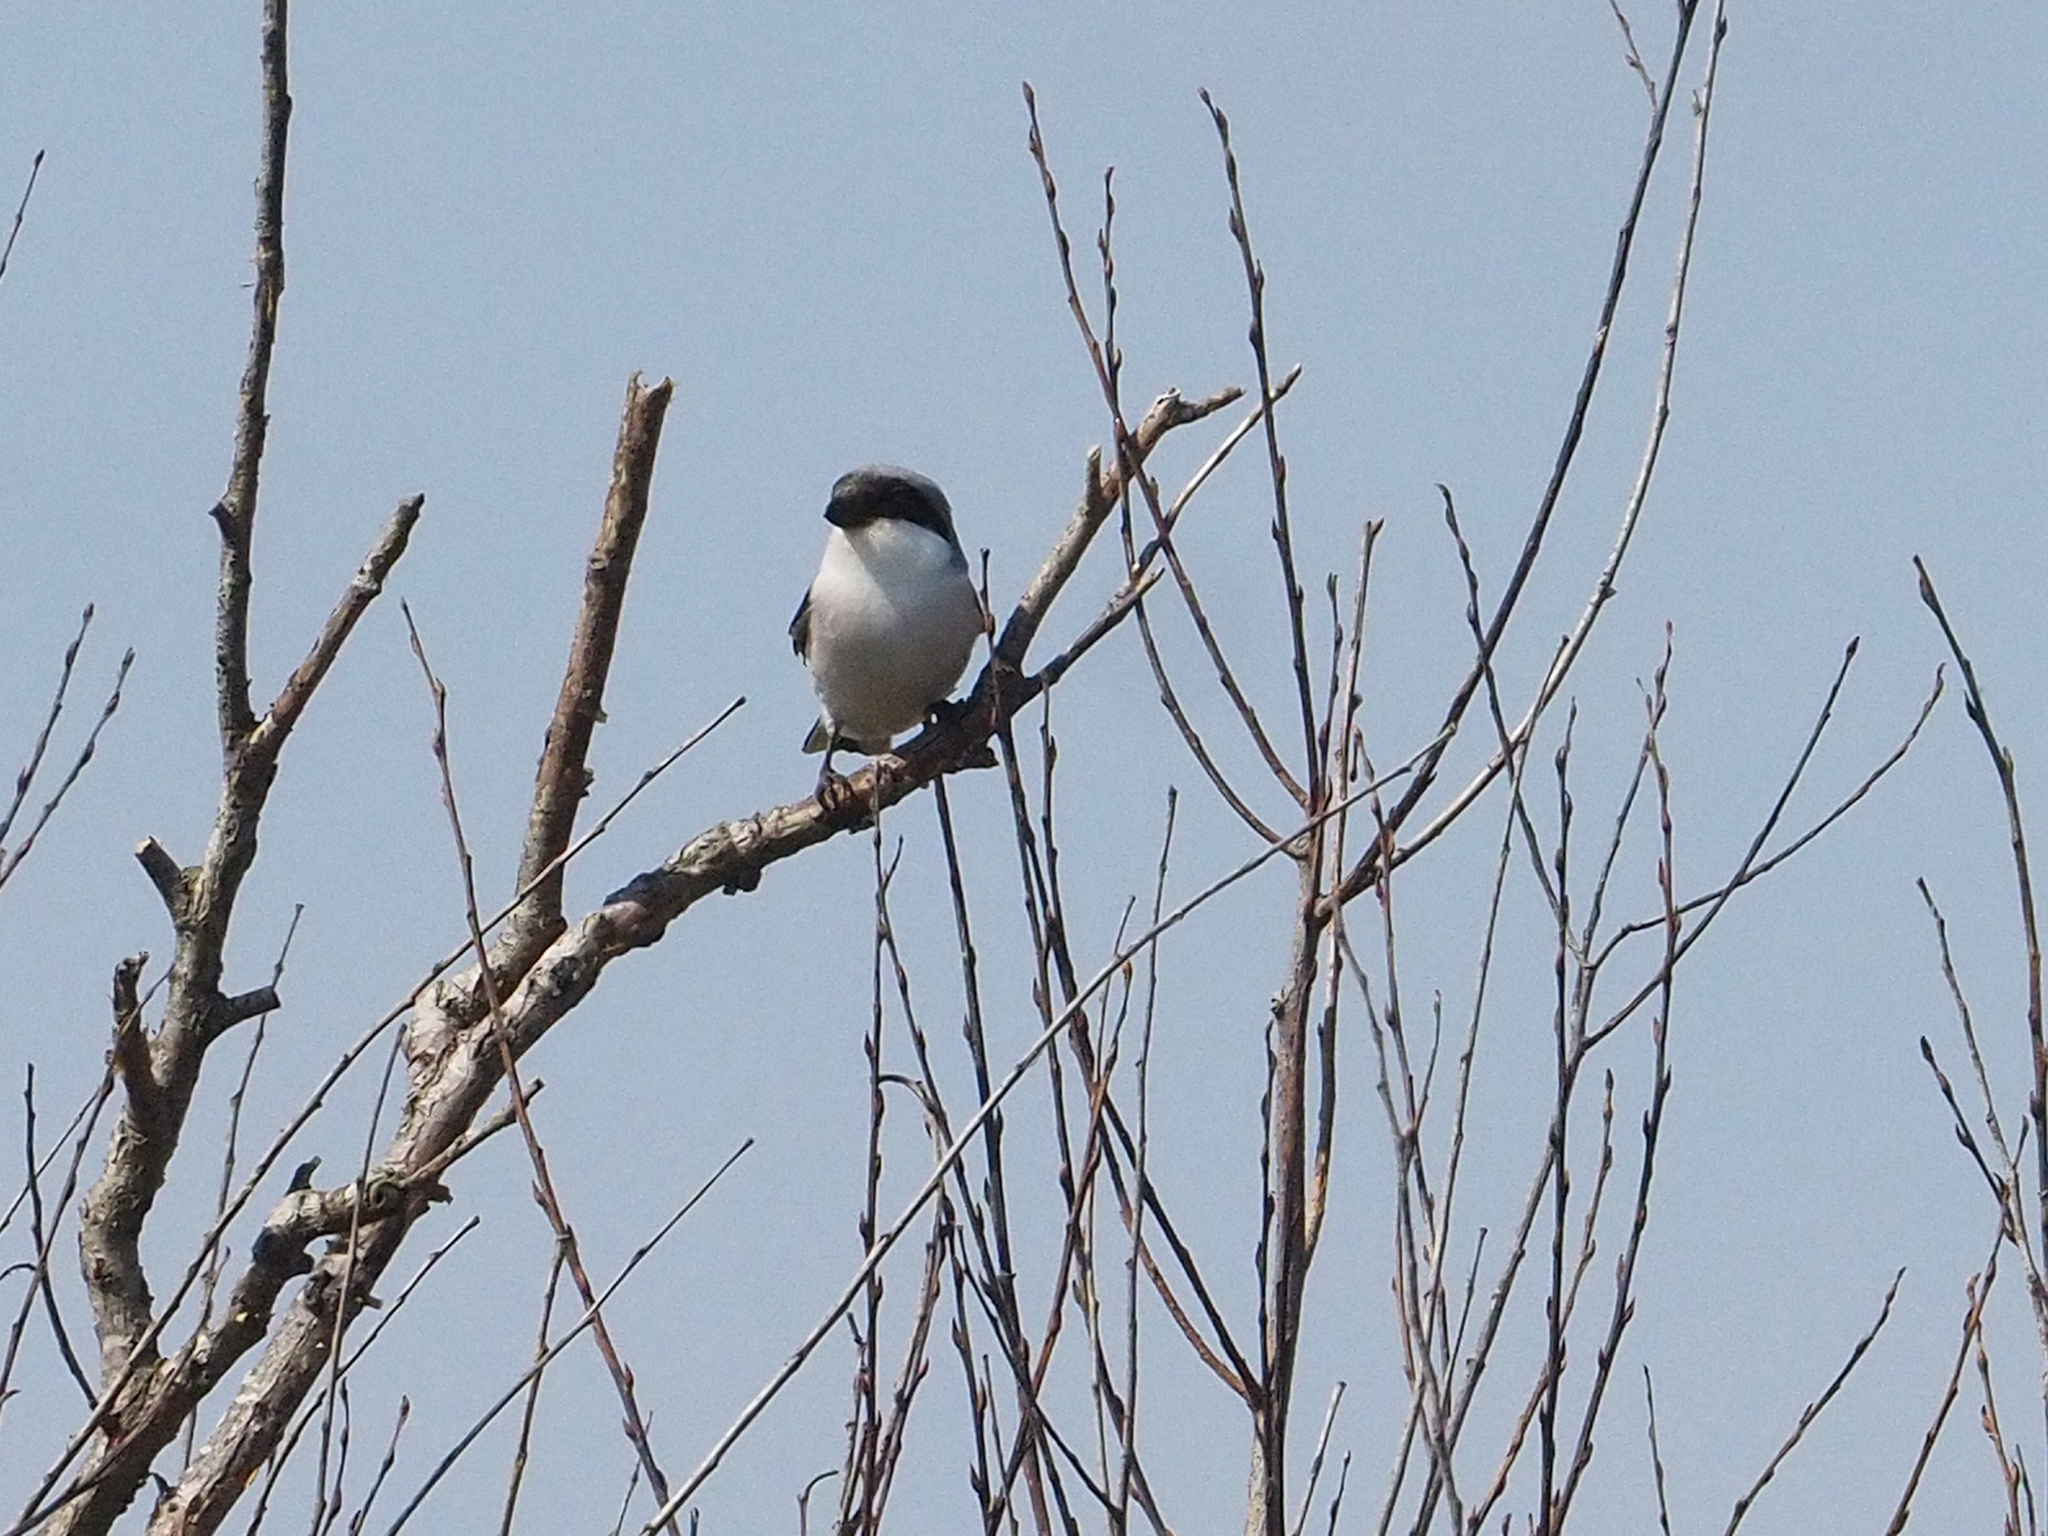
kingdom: Animalia
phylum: Chordata
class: Aves
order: Passeriformes
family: Laniidae
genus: Lanius
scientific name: Lanius minor
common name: Lesser grey shrike
